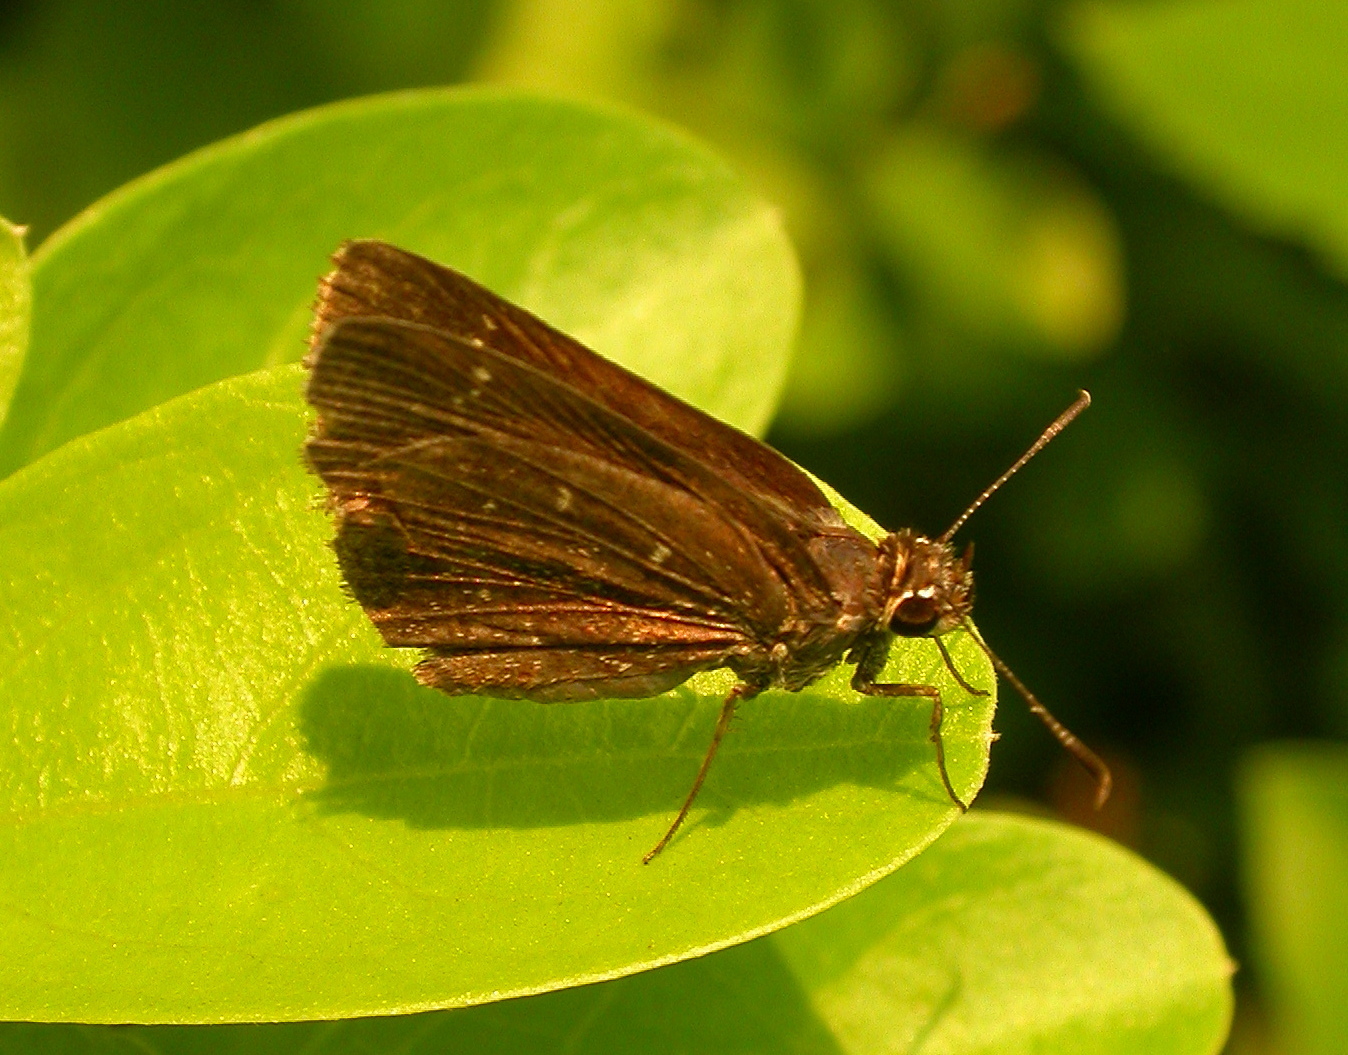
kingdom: Animalia
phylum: Arthropoda
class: Insecta
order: Lepidoptera
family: Hesperiidae
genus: Mastor
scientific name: Mastor celia
